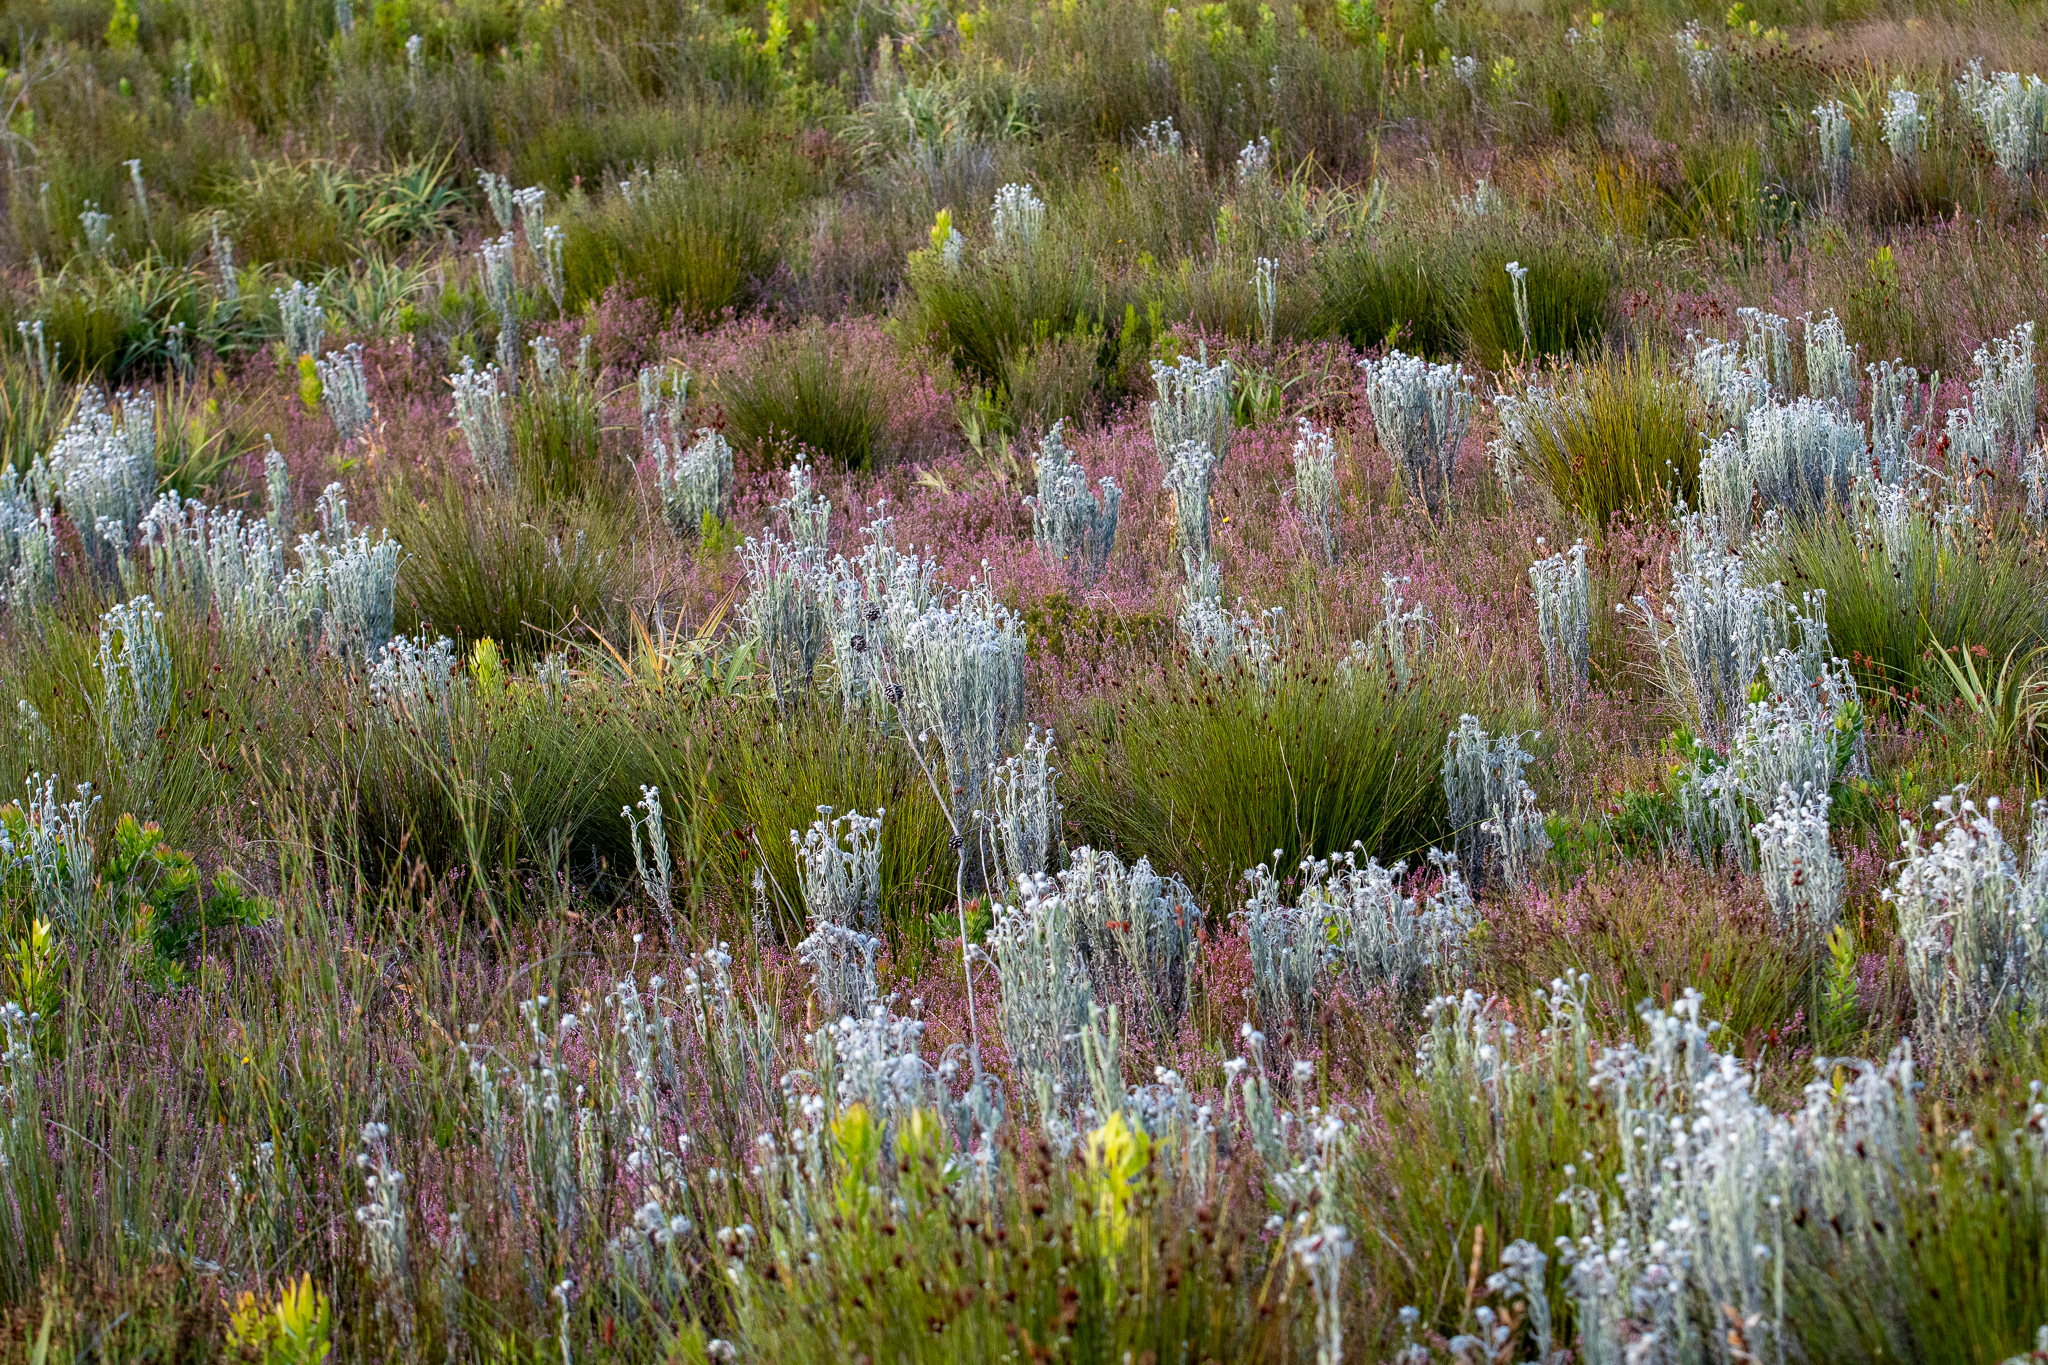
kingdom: Plantae
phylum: Tracheophyta
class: Magnoliopsida
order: Asterales
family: Asteraceae
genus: Syncarpha
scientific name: Syncarpha vestita
